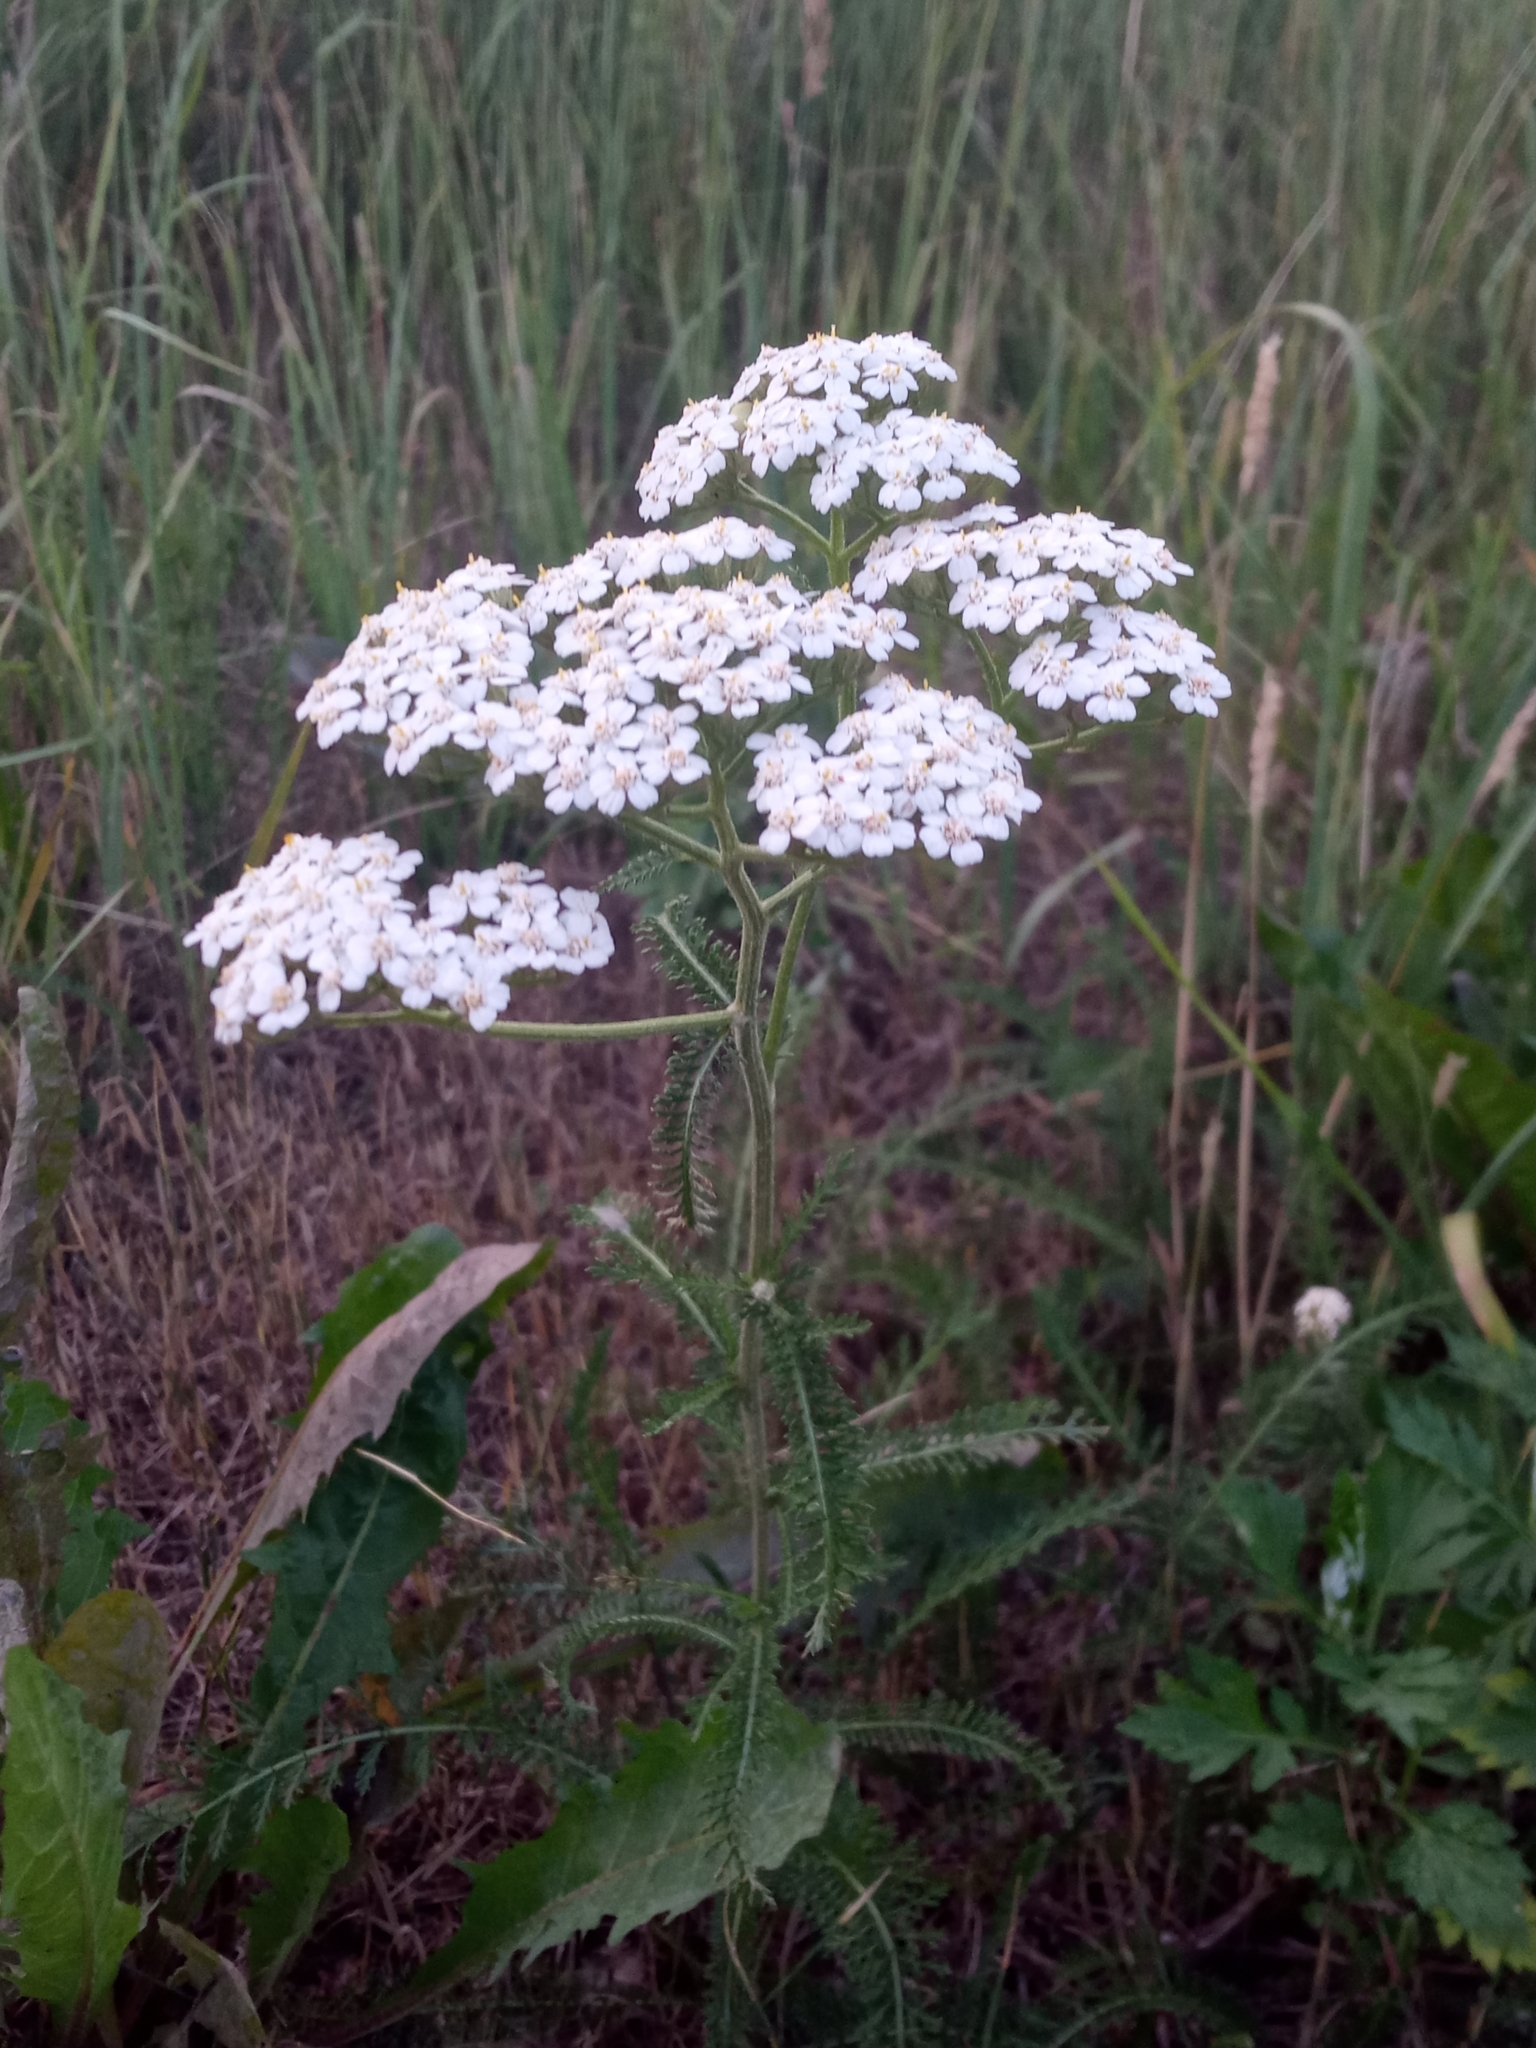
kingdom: Plantae
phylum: Tracheophyta
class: Magnoliopsida
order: Asterales
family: Asteraceae
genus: Achillea
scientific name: Achillea millefolium
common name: Yarrow
